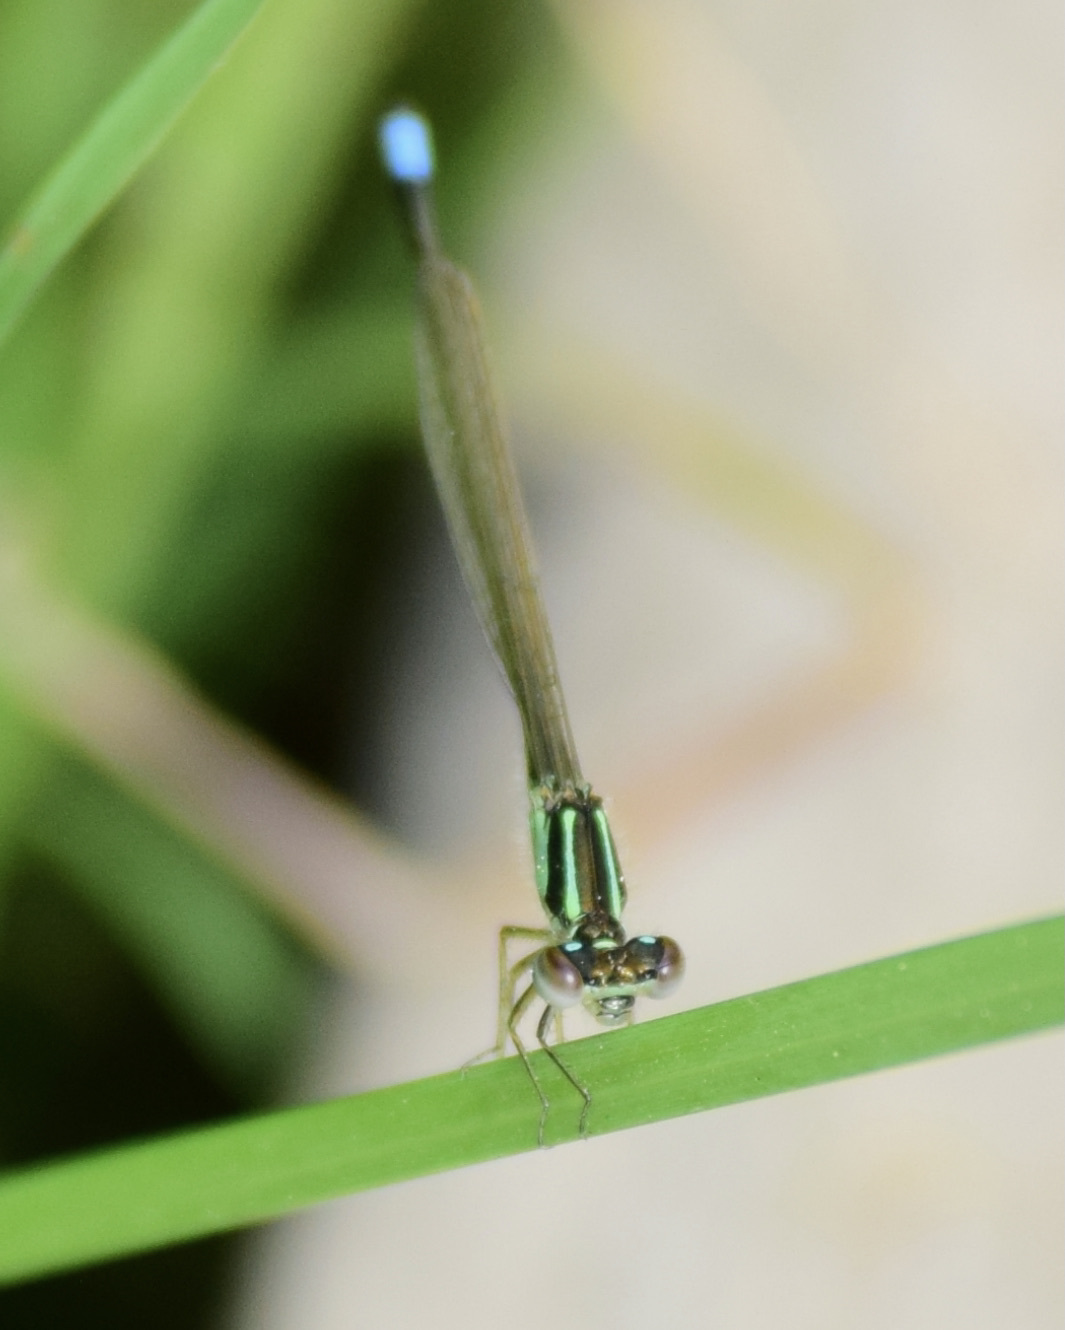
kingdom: Animalia
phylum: Arthropoda
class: Insecta
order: Odonata
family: Coenagrionidae
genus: Ischnura
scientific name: Ischnura verticalis
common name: Eastern forktail
